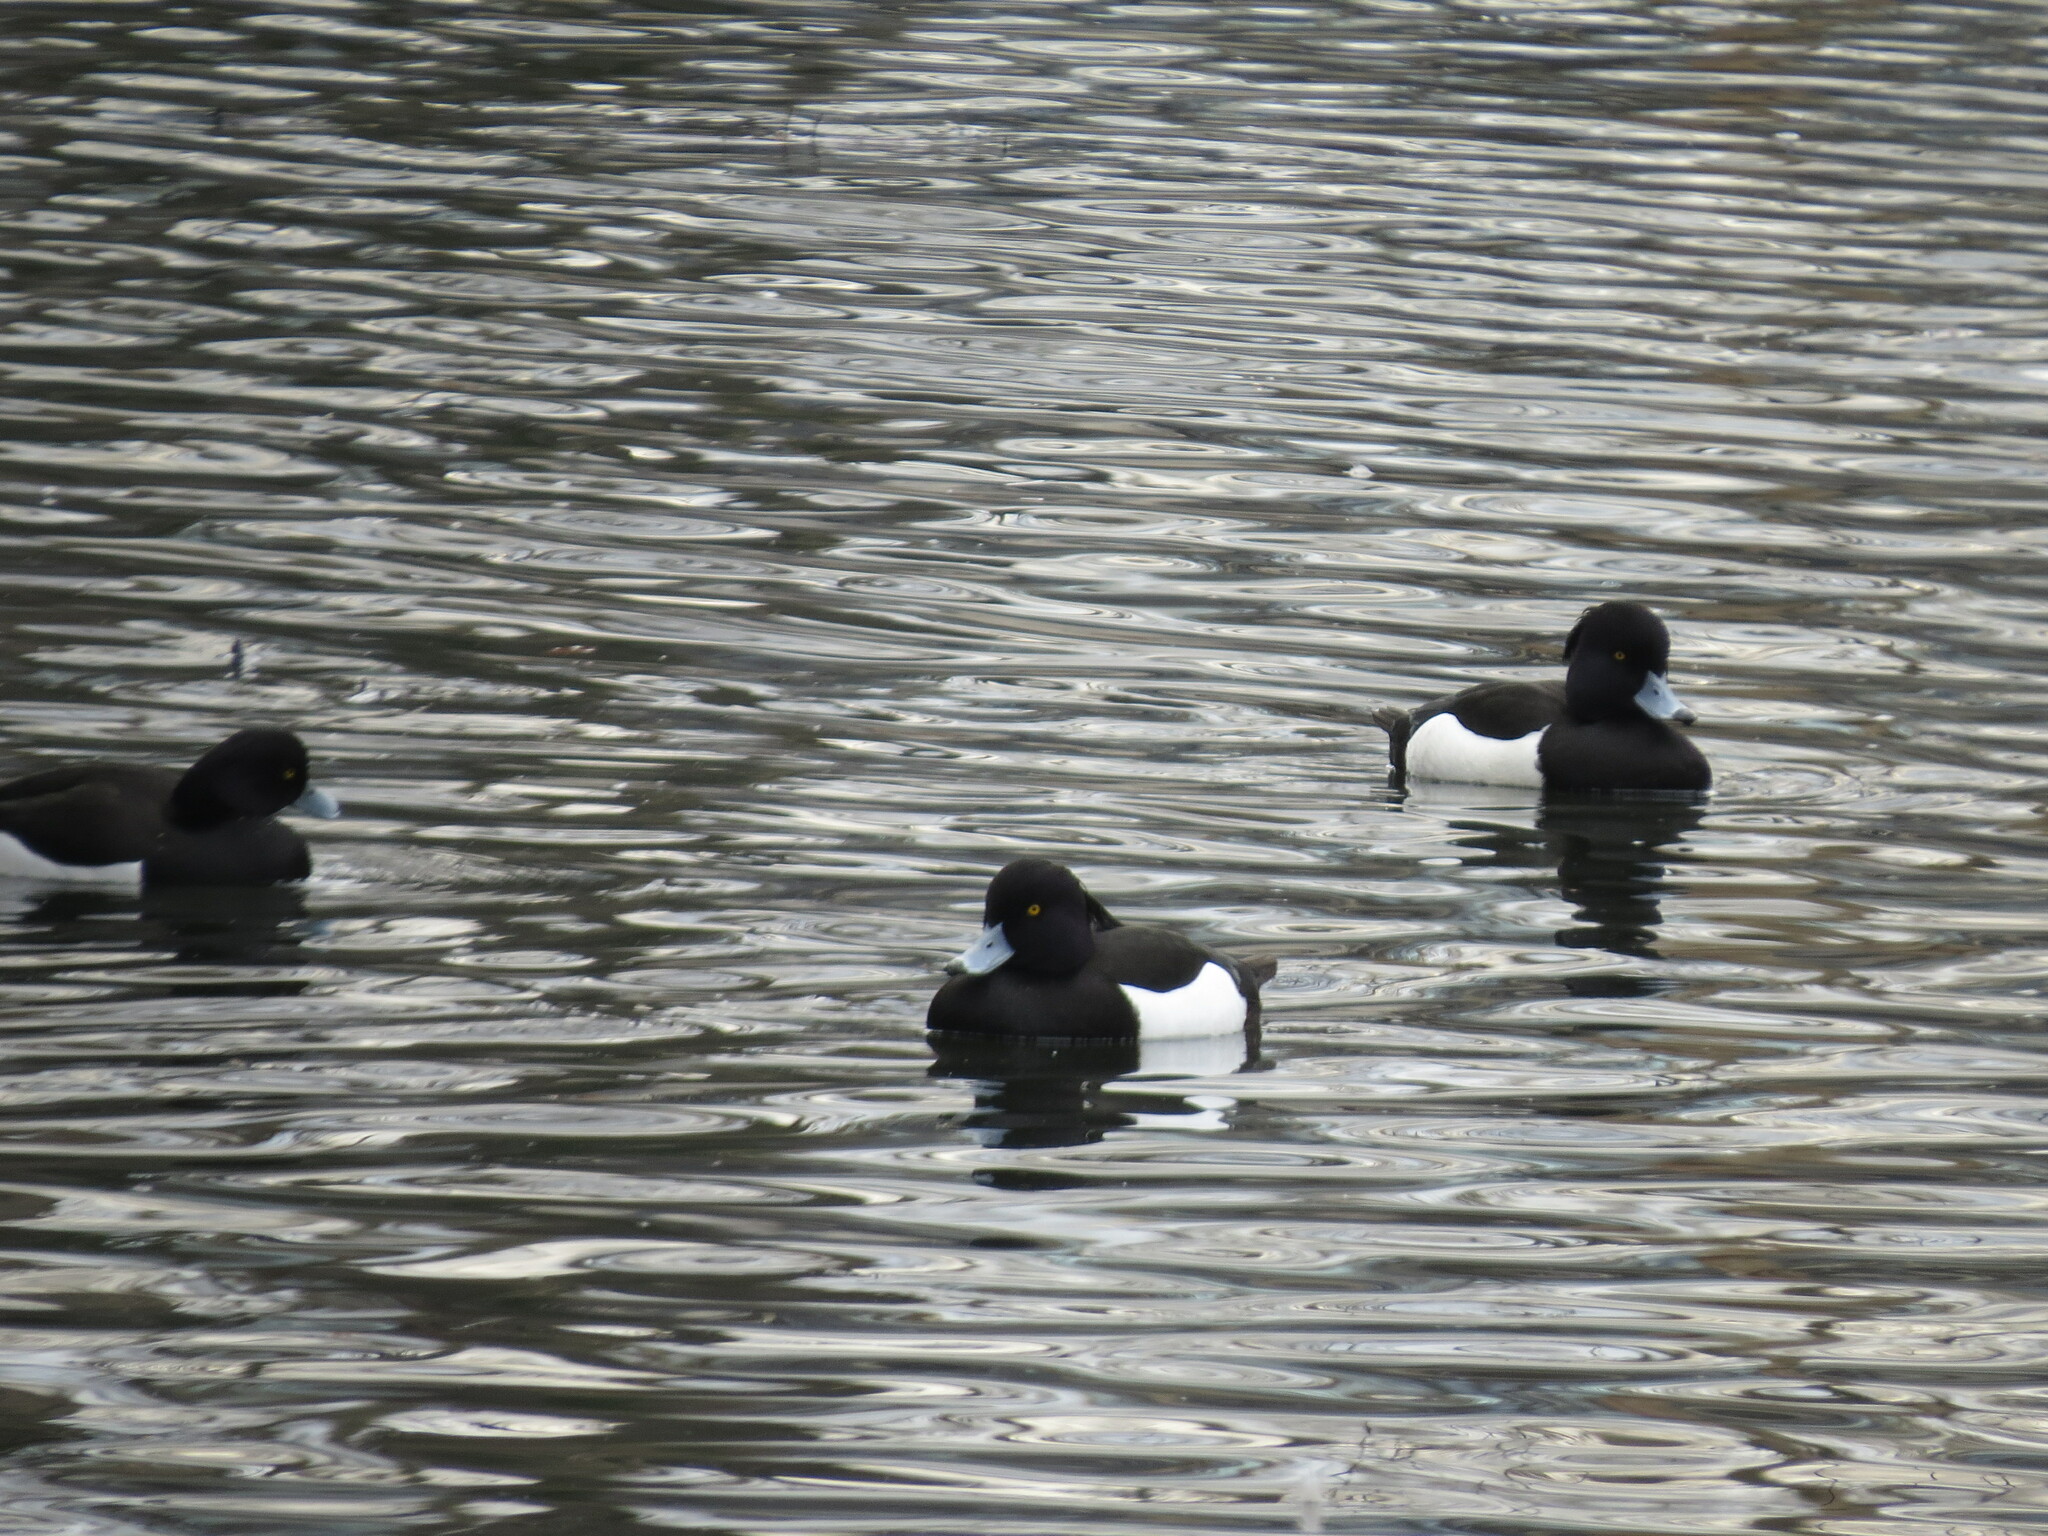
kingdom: Animalia
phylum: Chordata
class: Aves
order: Anseriformes
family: Anatidae
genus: Aythya
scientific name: Aythya fuligula
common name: Tufted duck
